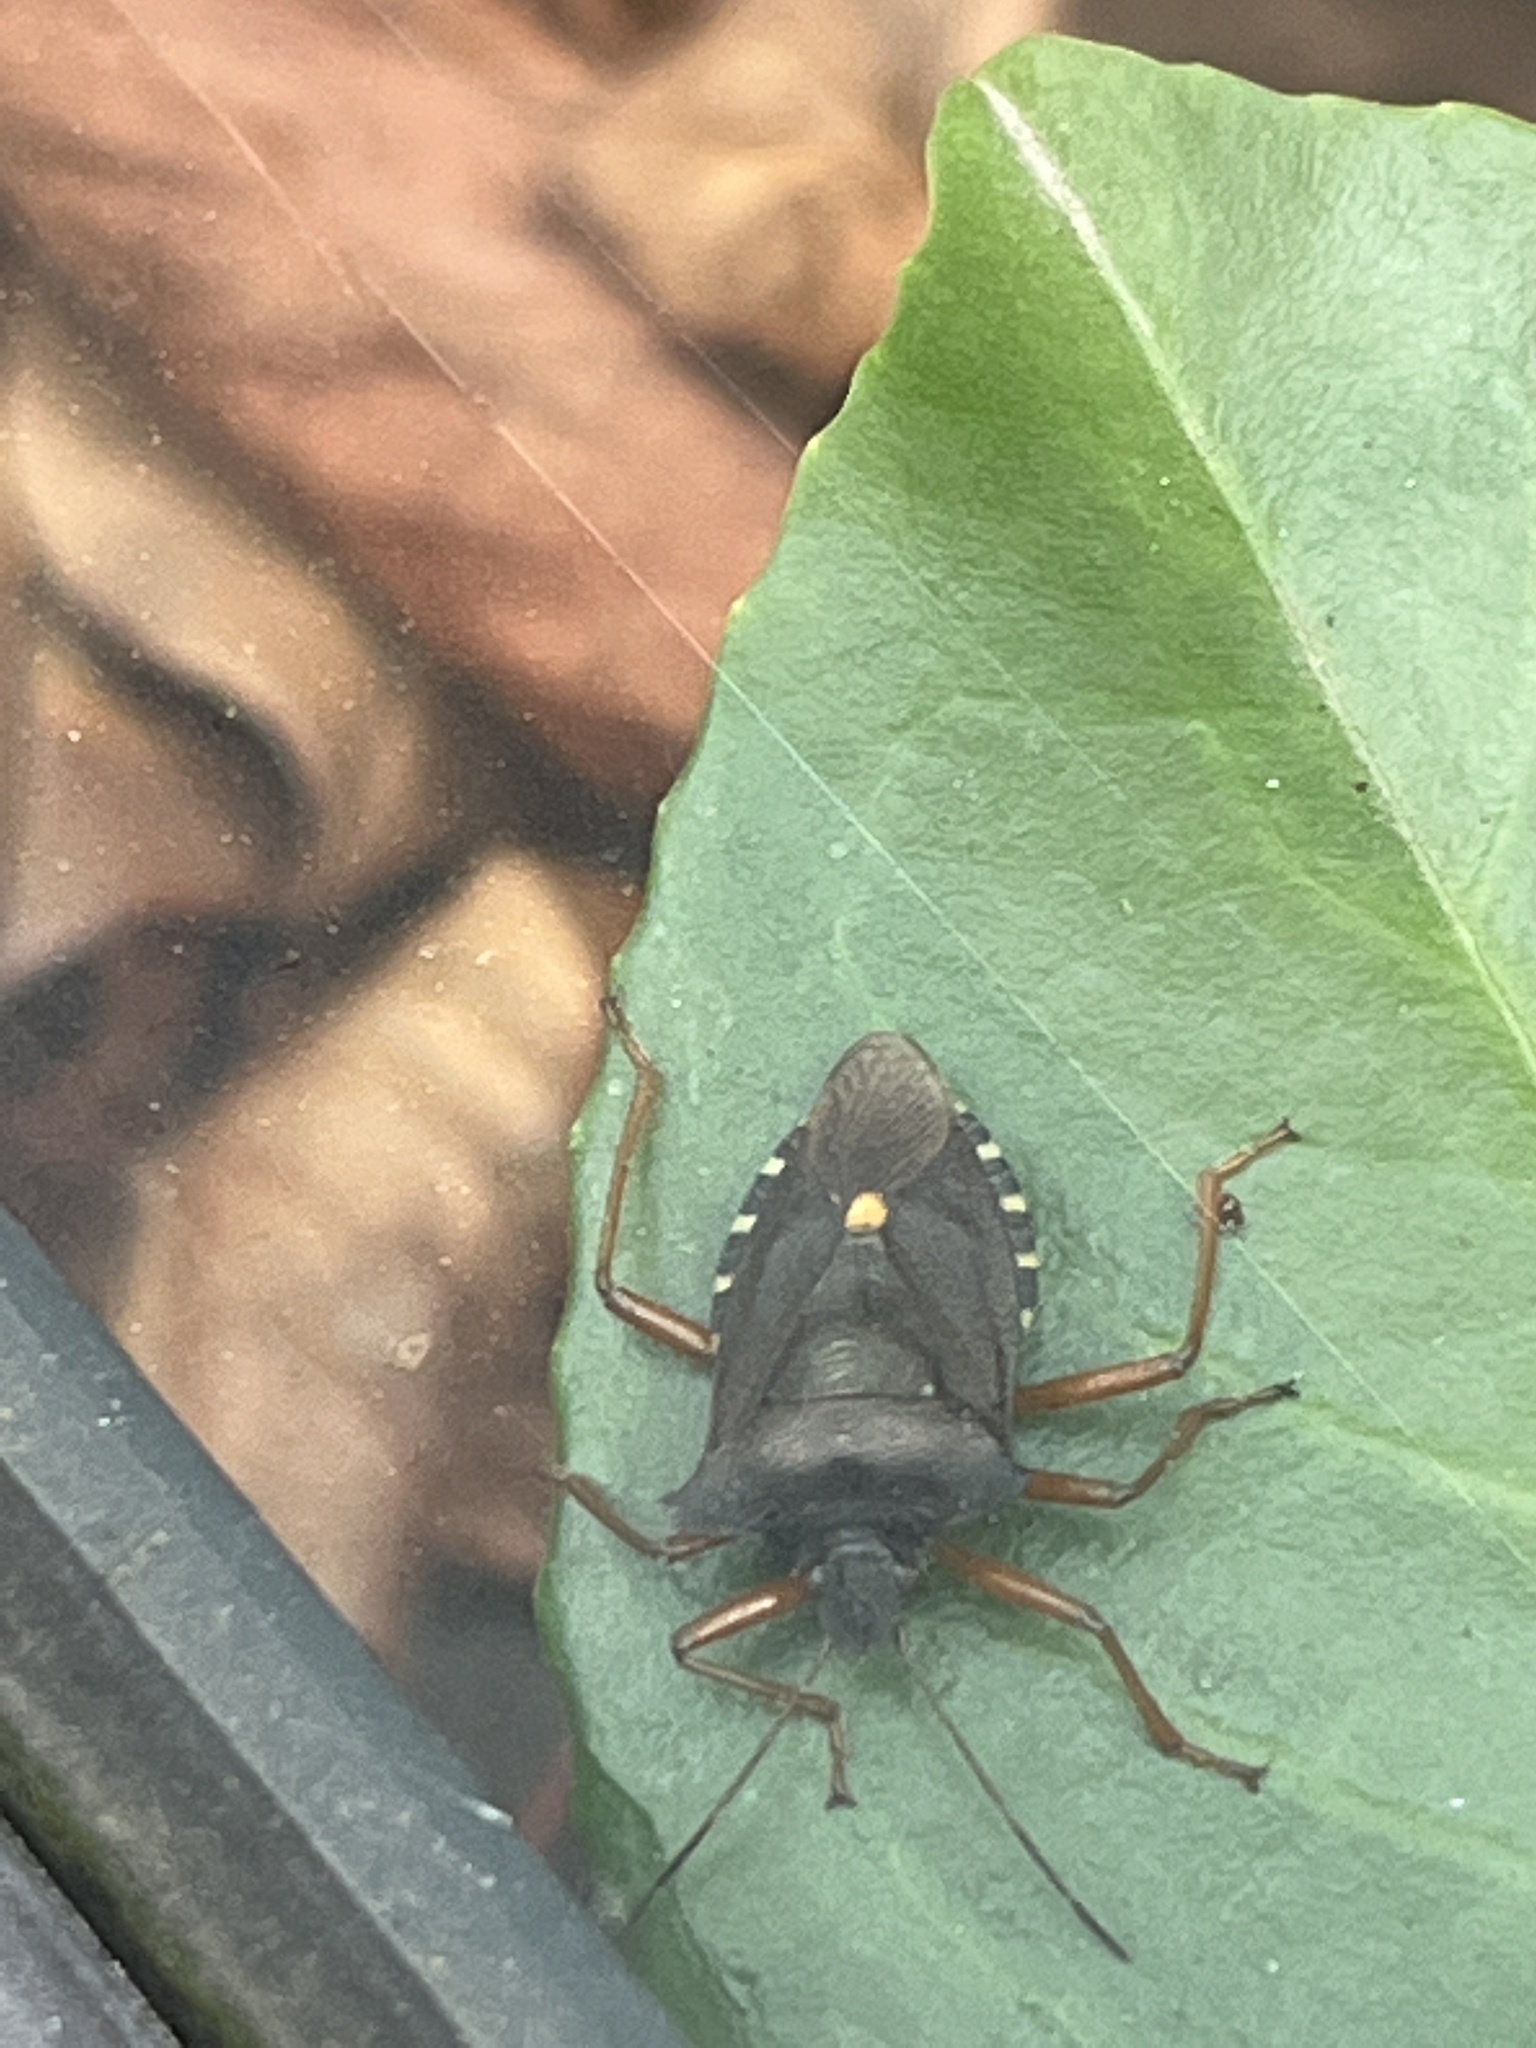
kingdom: Animalia
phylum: Arthropoda
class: Insecta
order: Hemiptera
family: Pentatomidae
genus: Pentatoma
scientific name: Pentatoma rufipes
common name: Forest bug
